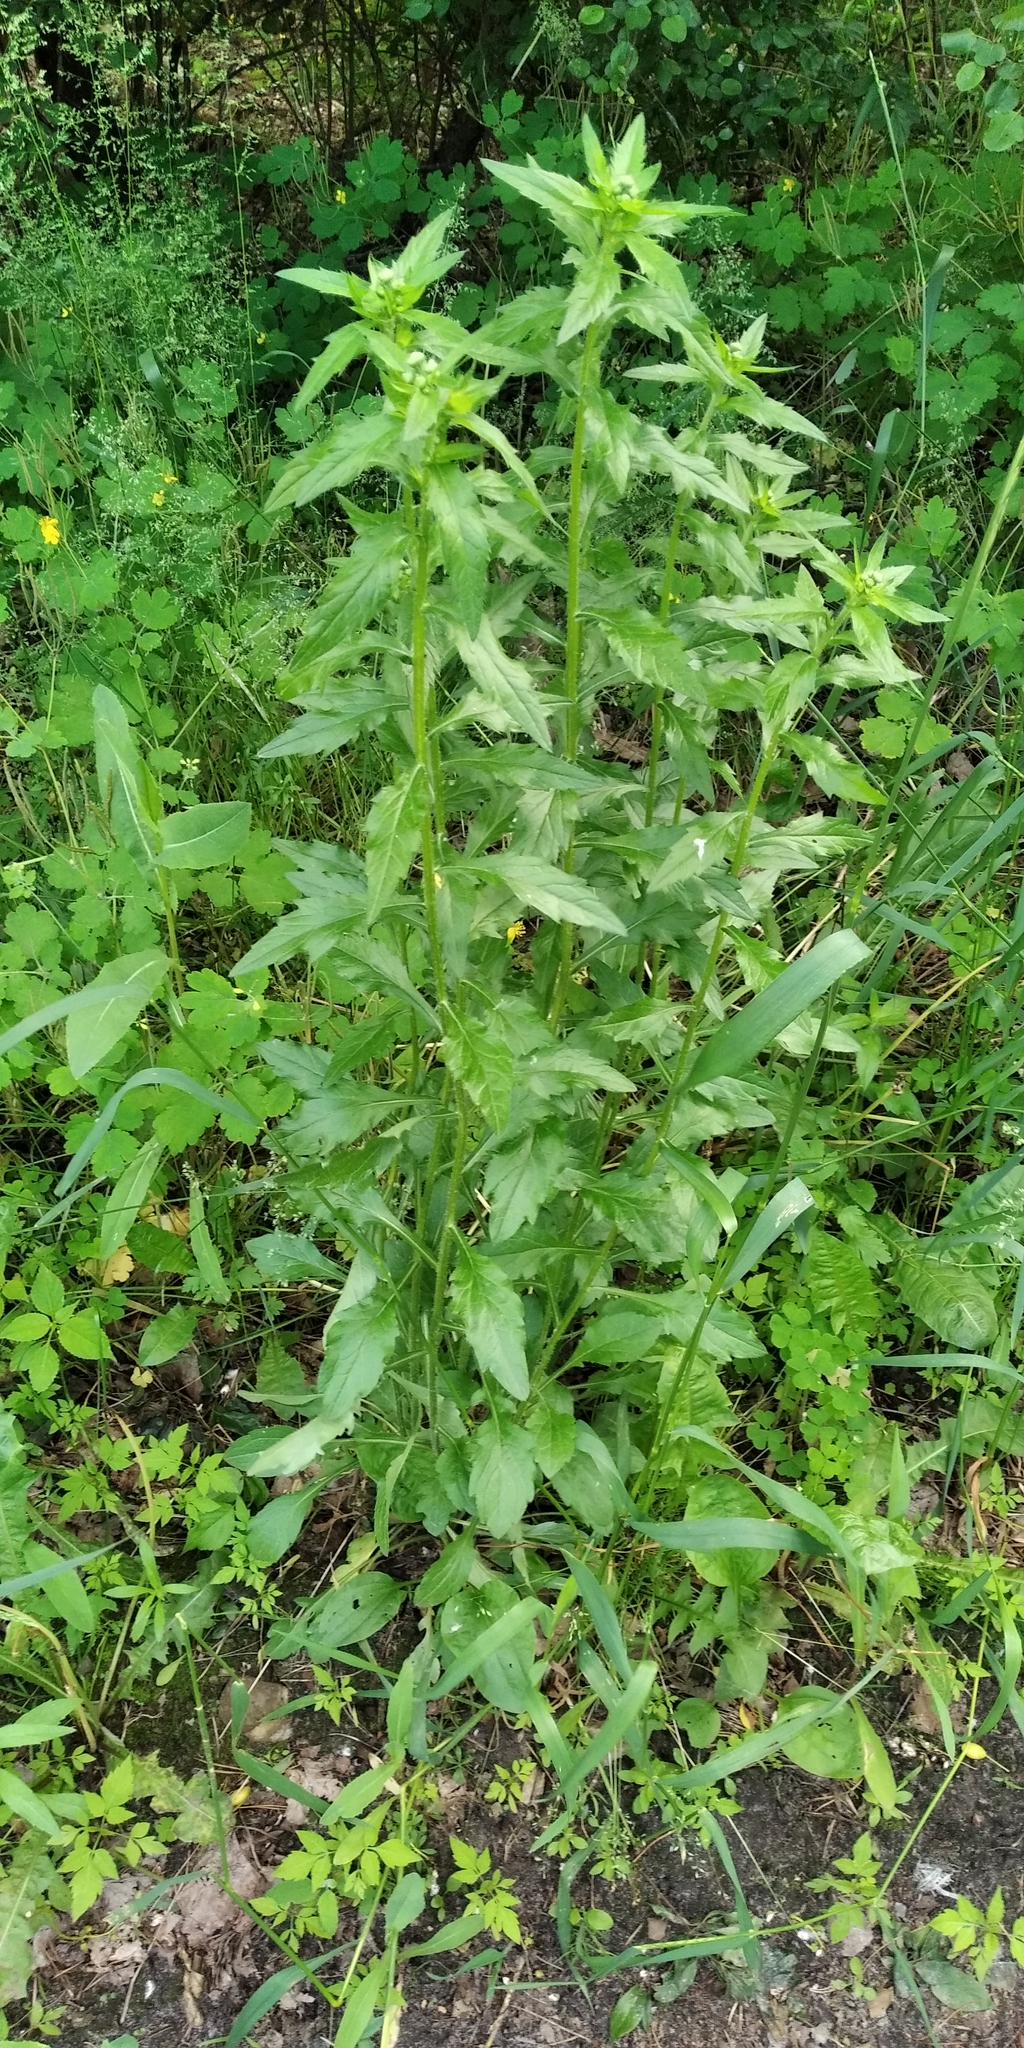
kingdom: Plantae
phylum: Tracheophyta
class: Magnoliopsida
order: Asterales
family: Asteraceae
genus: Erigeron
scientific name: Erigeron annuus
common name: Tall fleabane
